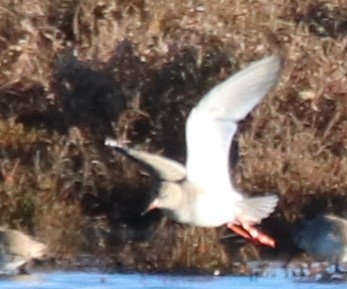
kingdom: Animalia
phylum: Chordata
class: Aves
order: Charadriiformes
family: Scolopacidae
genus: Tringa
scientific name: Tringa totanus
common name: Common redshank
